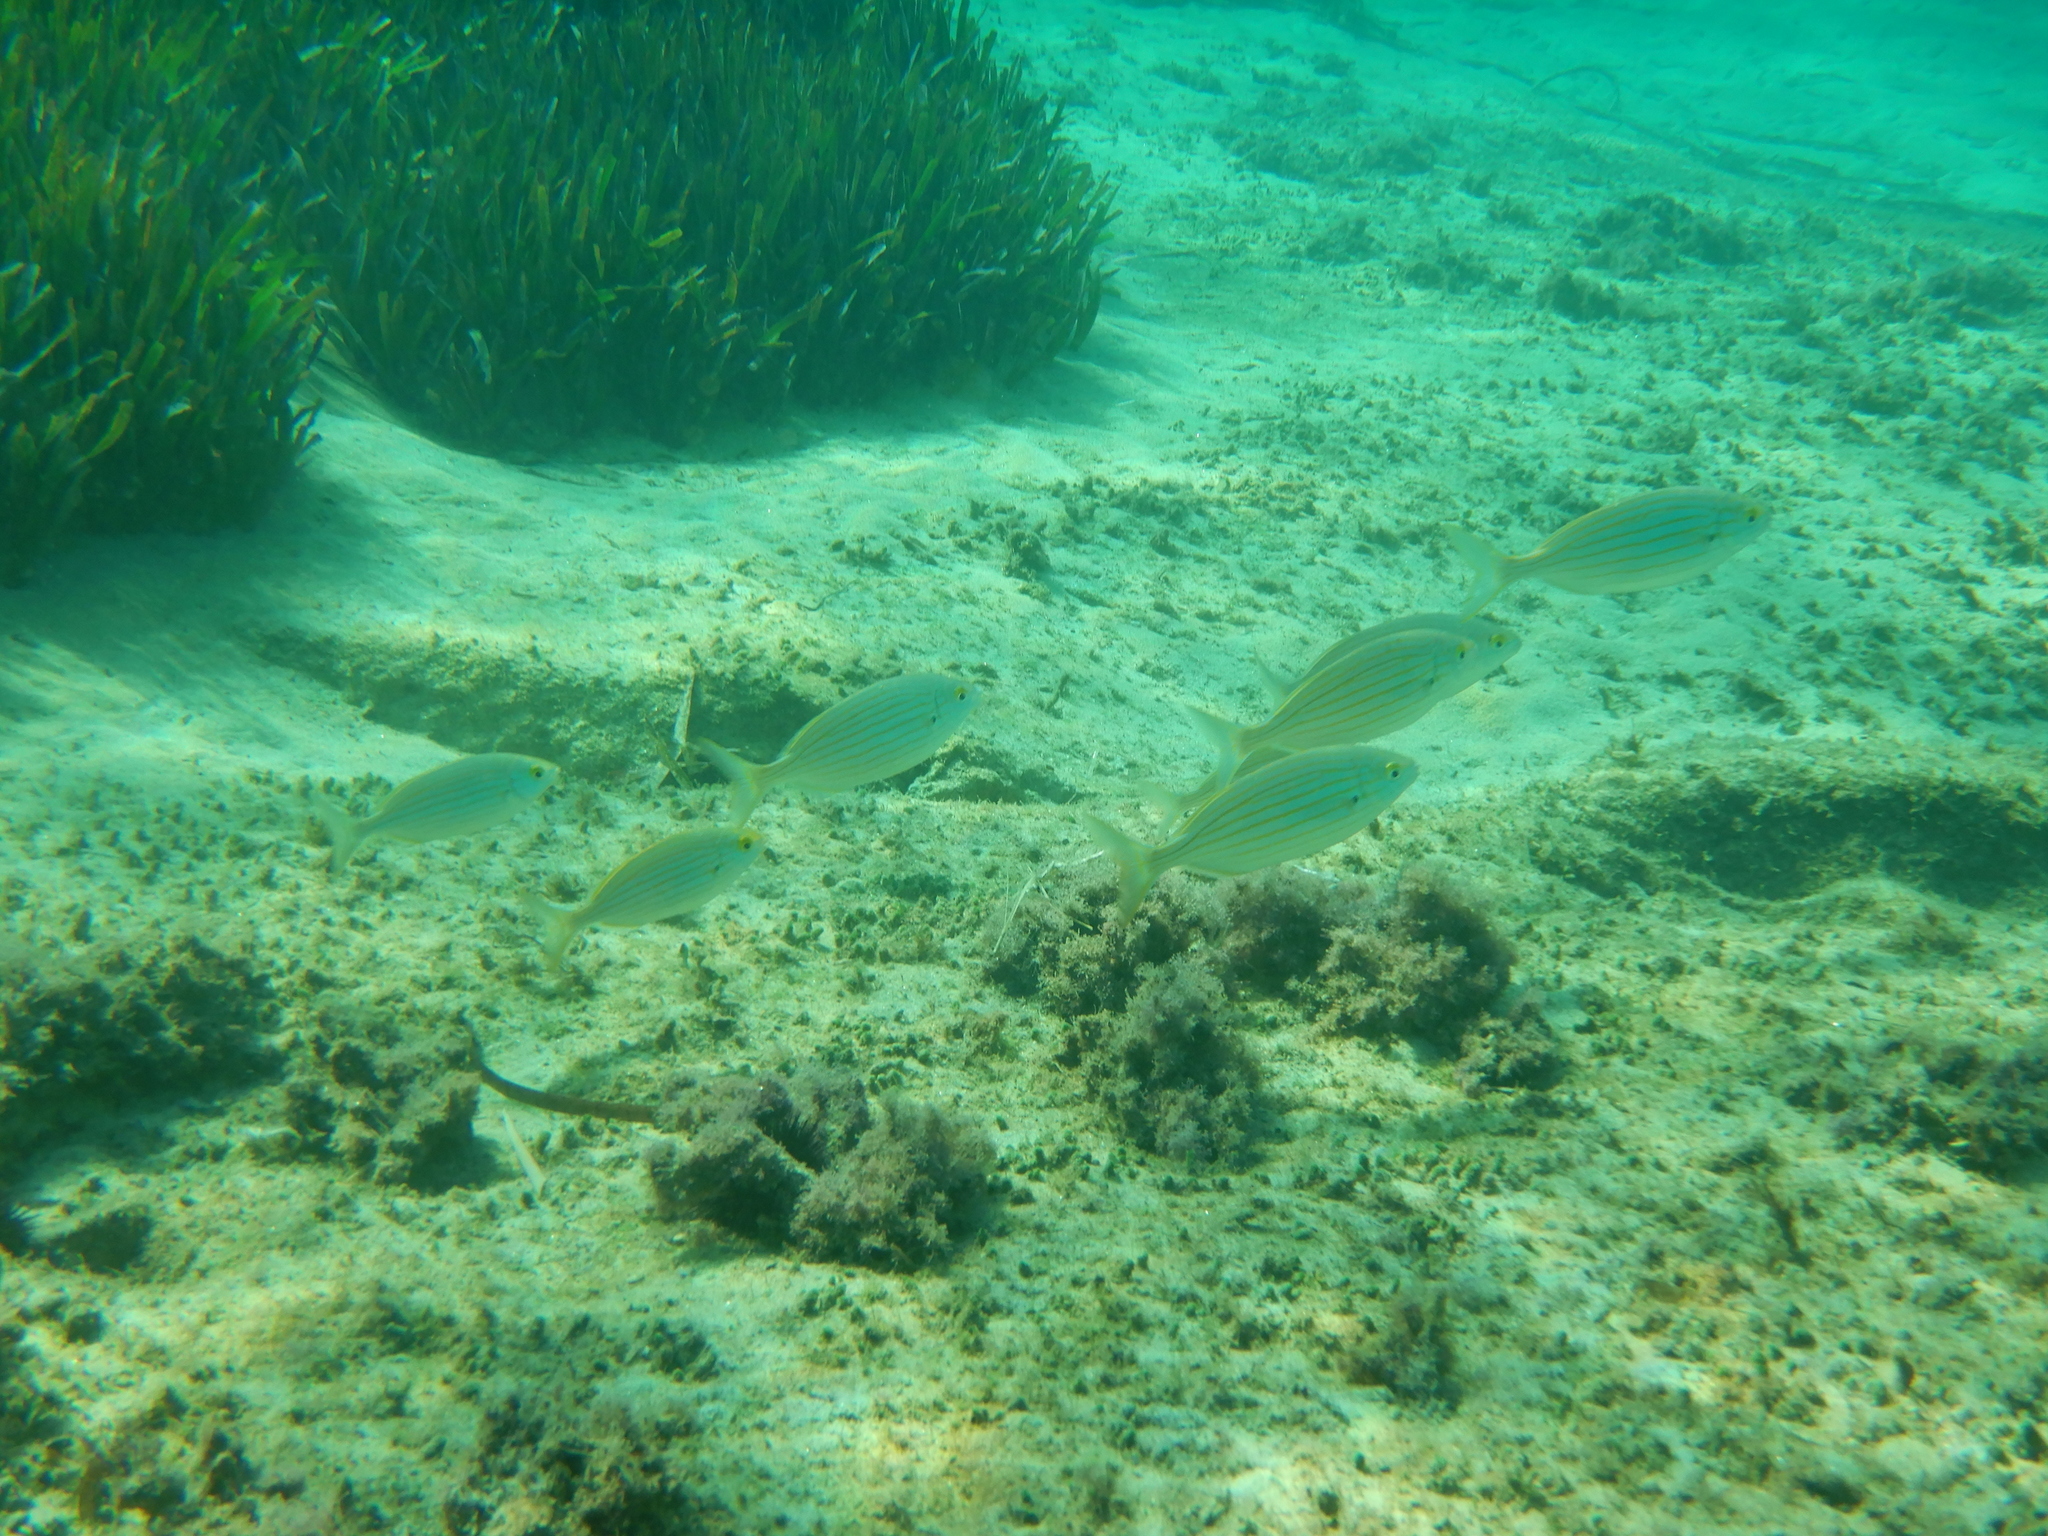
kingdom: Animalia
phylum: Chordata
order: Perciformes
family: Sparidae
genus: Sarpa
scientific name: Sarpa salpa
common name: Salema
